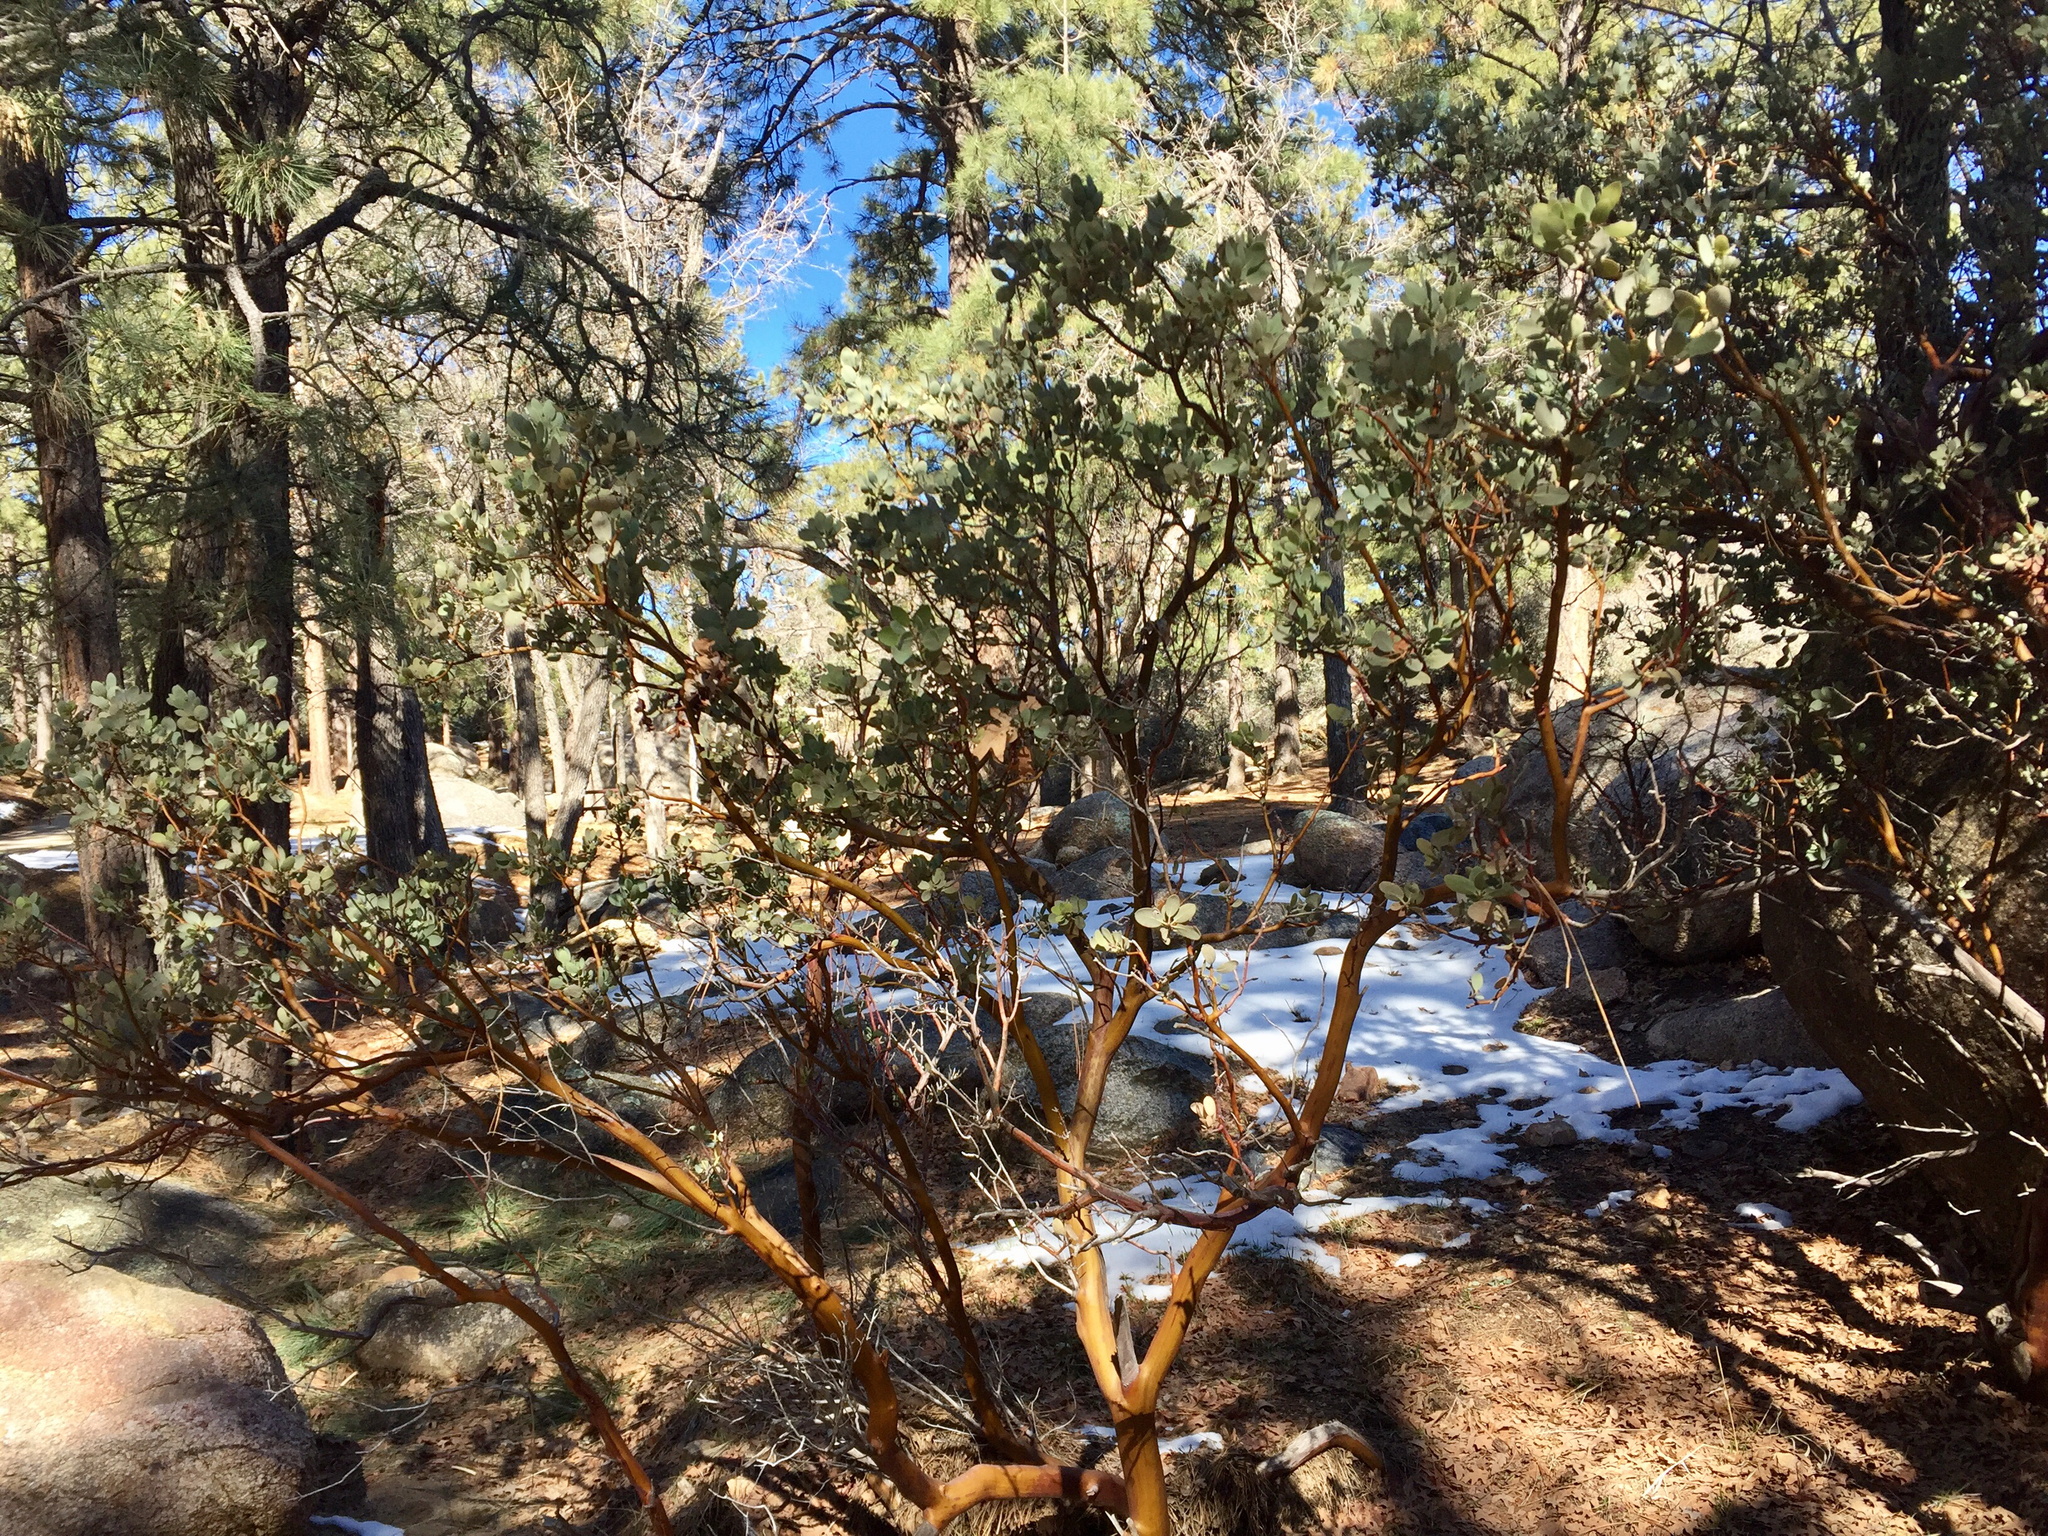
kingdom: Plantae
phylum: Tracheophyta
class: Magnoliopsida
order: Ericales
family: Ericaceae
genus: Arctostaphylos
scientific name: Arctostaphylos pringlei
